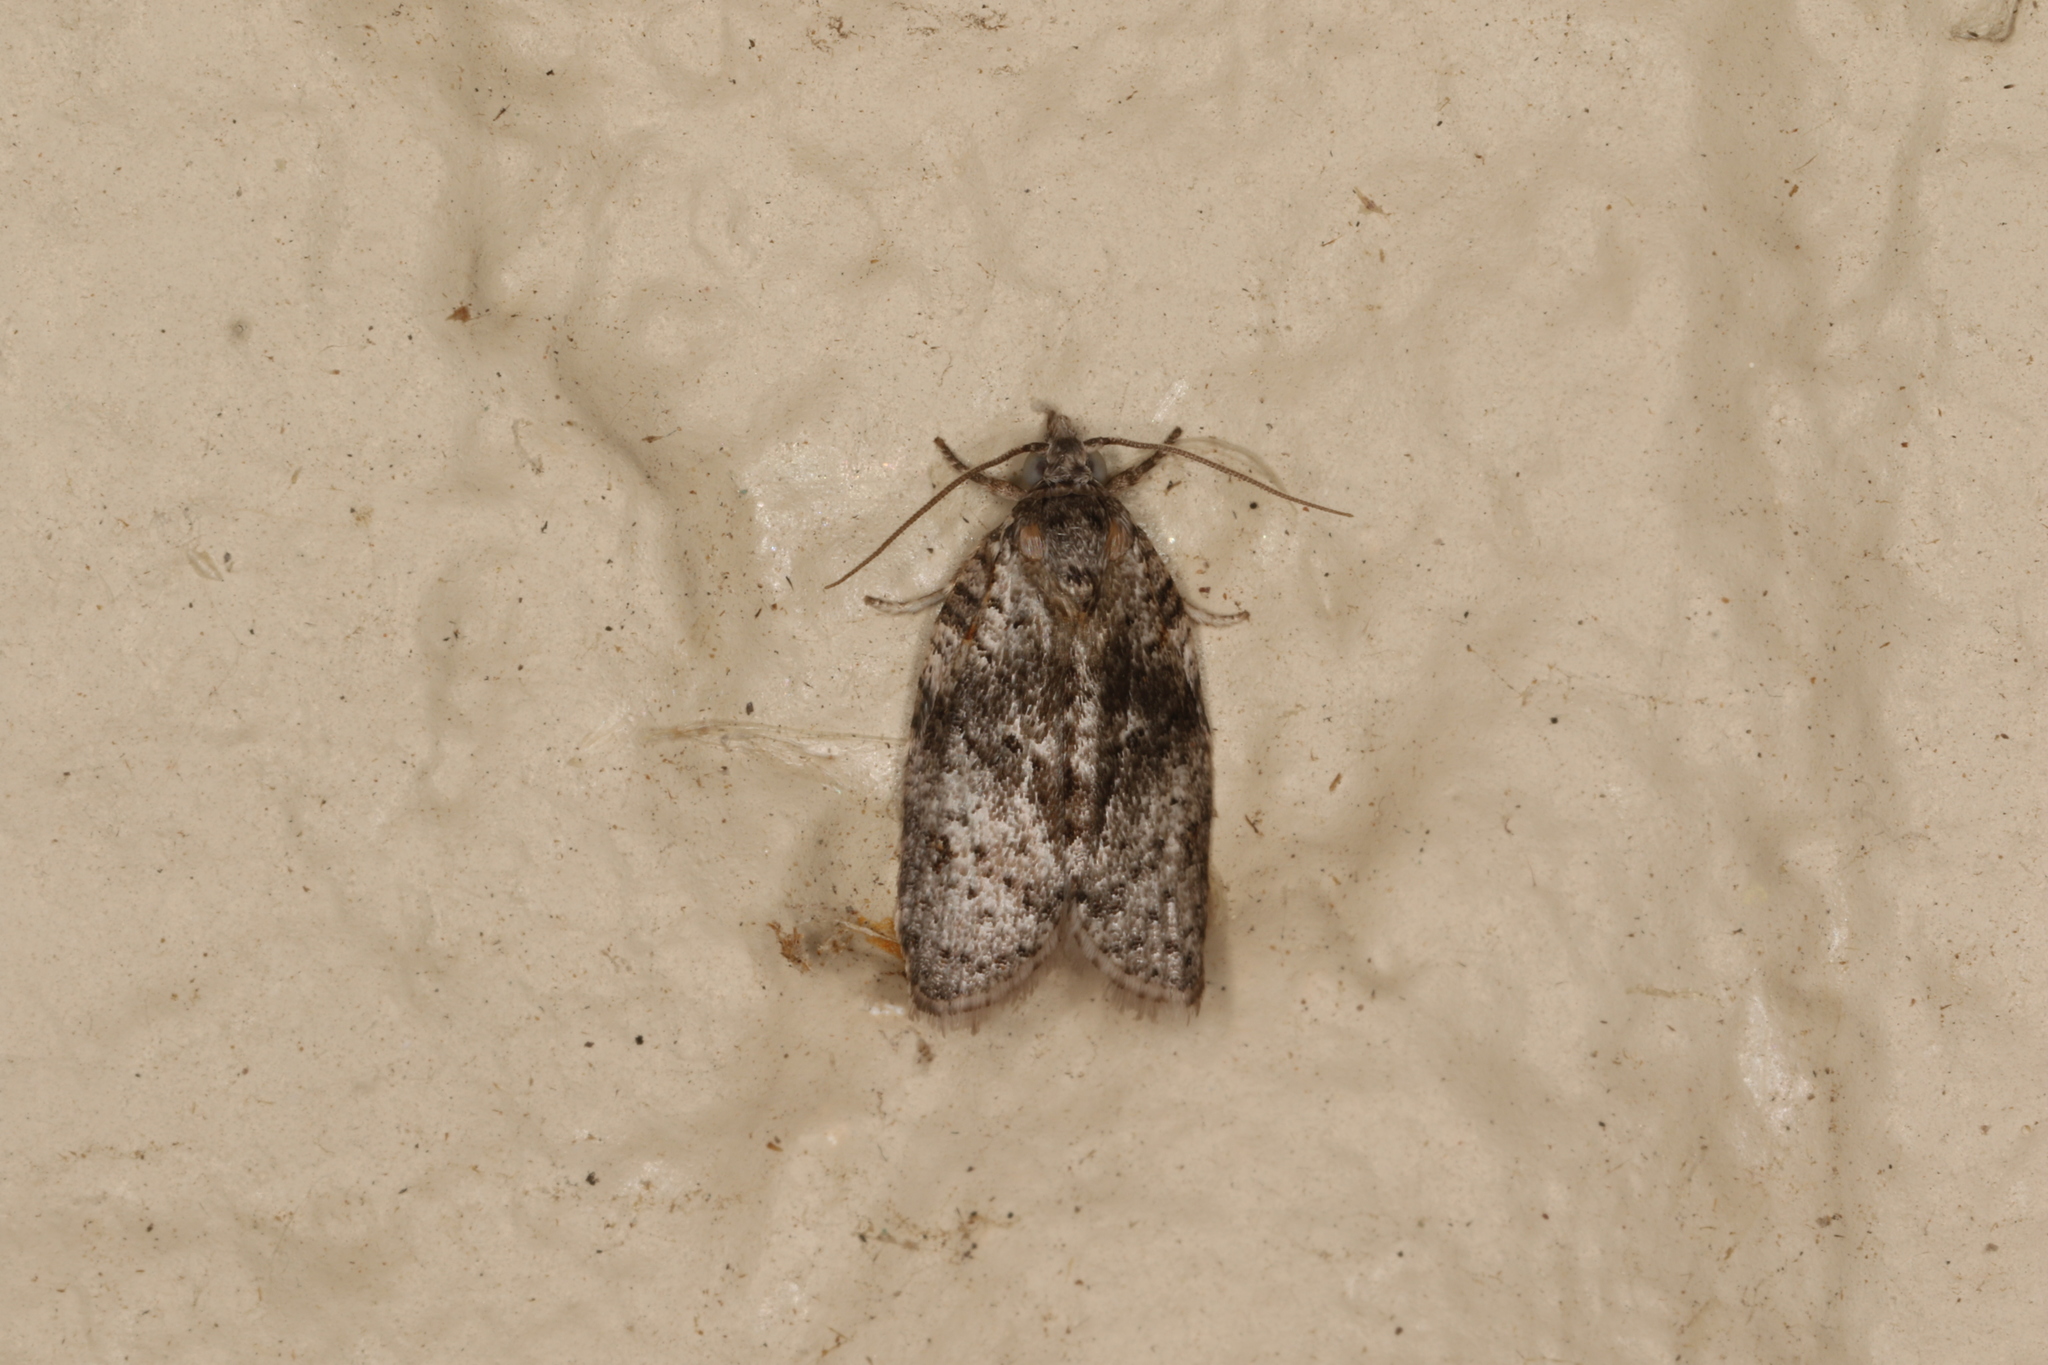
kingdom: Animalia
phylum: Arthropoda
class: Insecta
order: Lepidoptera
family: Tortricidae
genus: Isotenes
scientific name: Isotenes miserana
